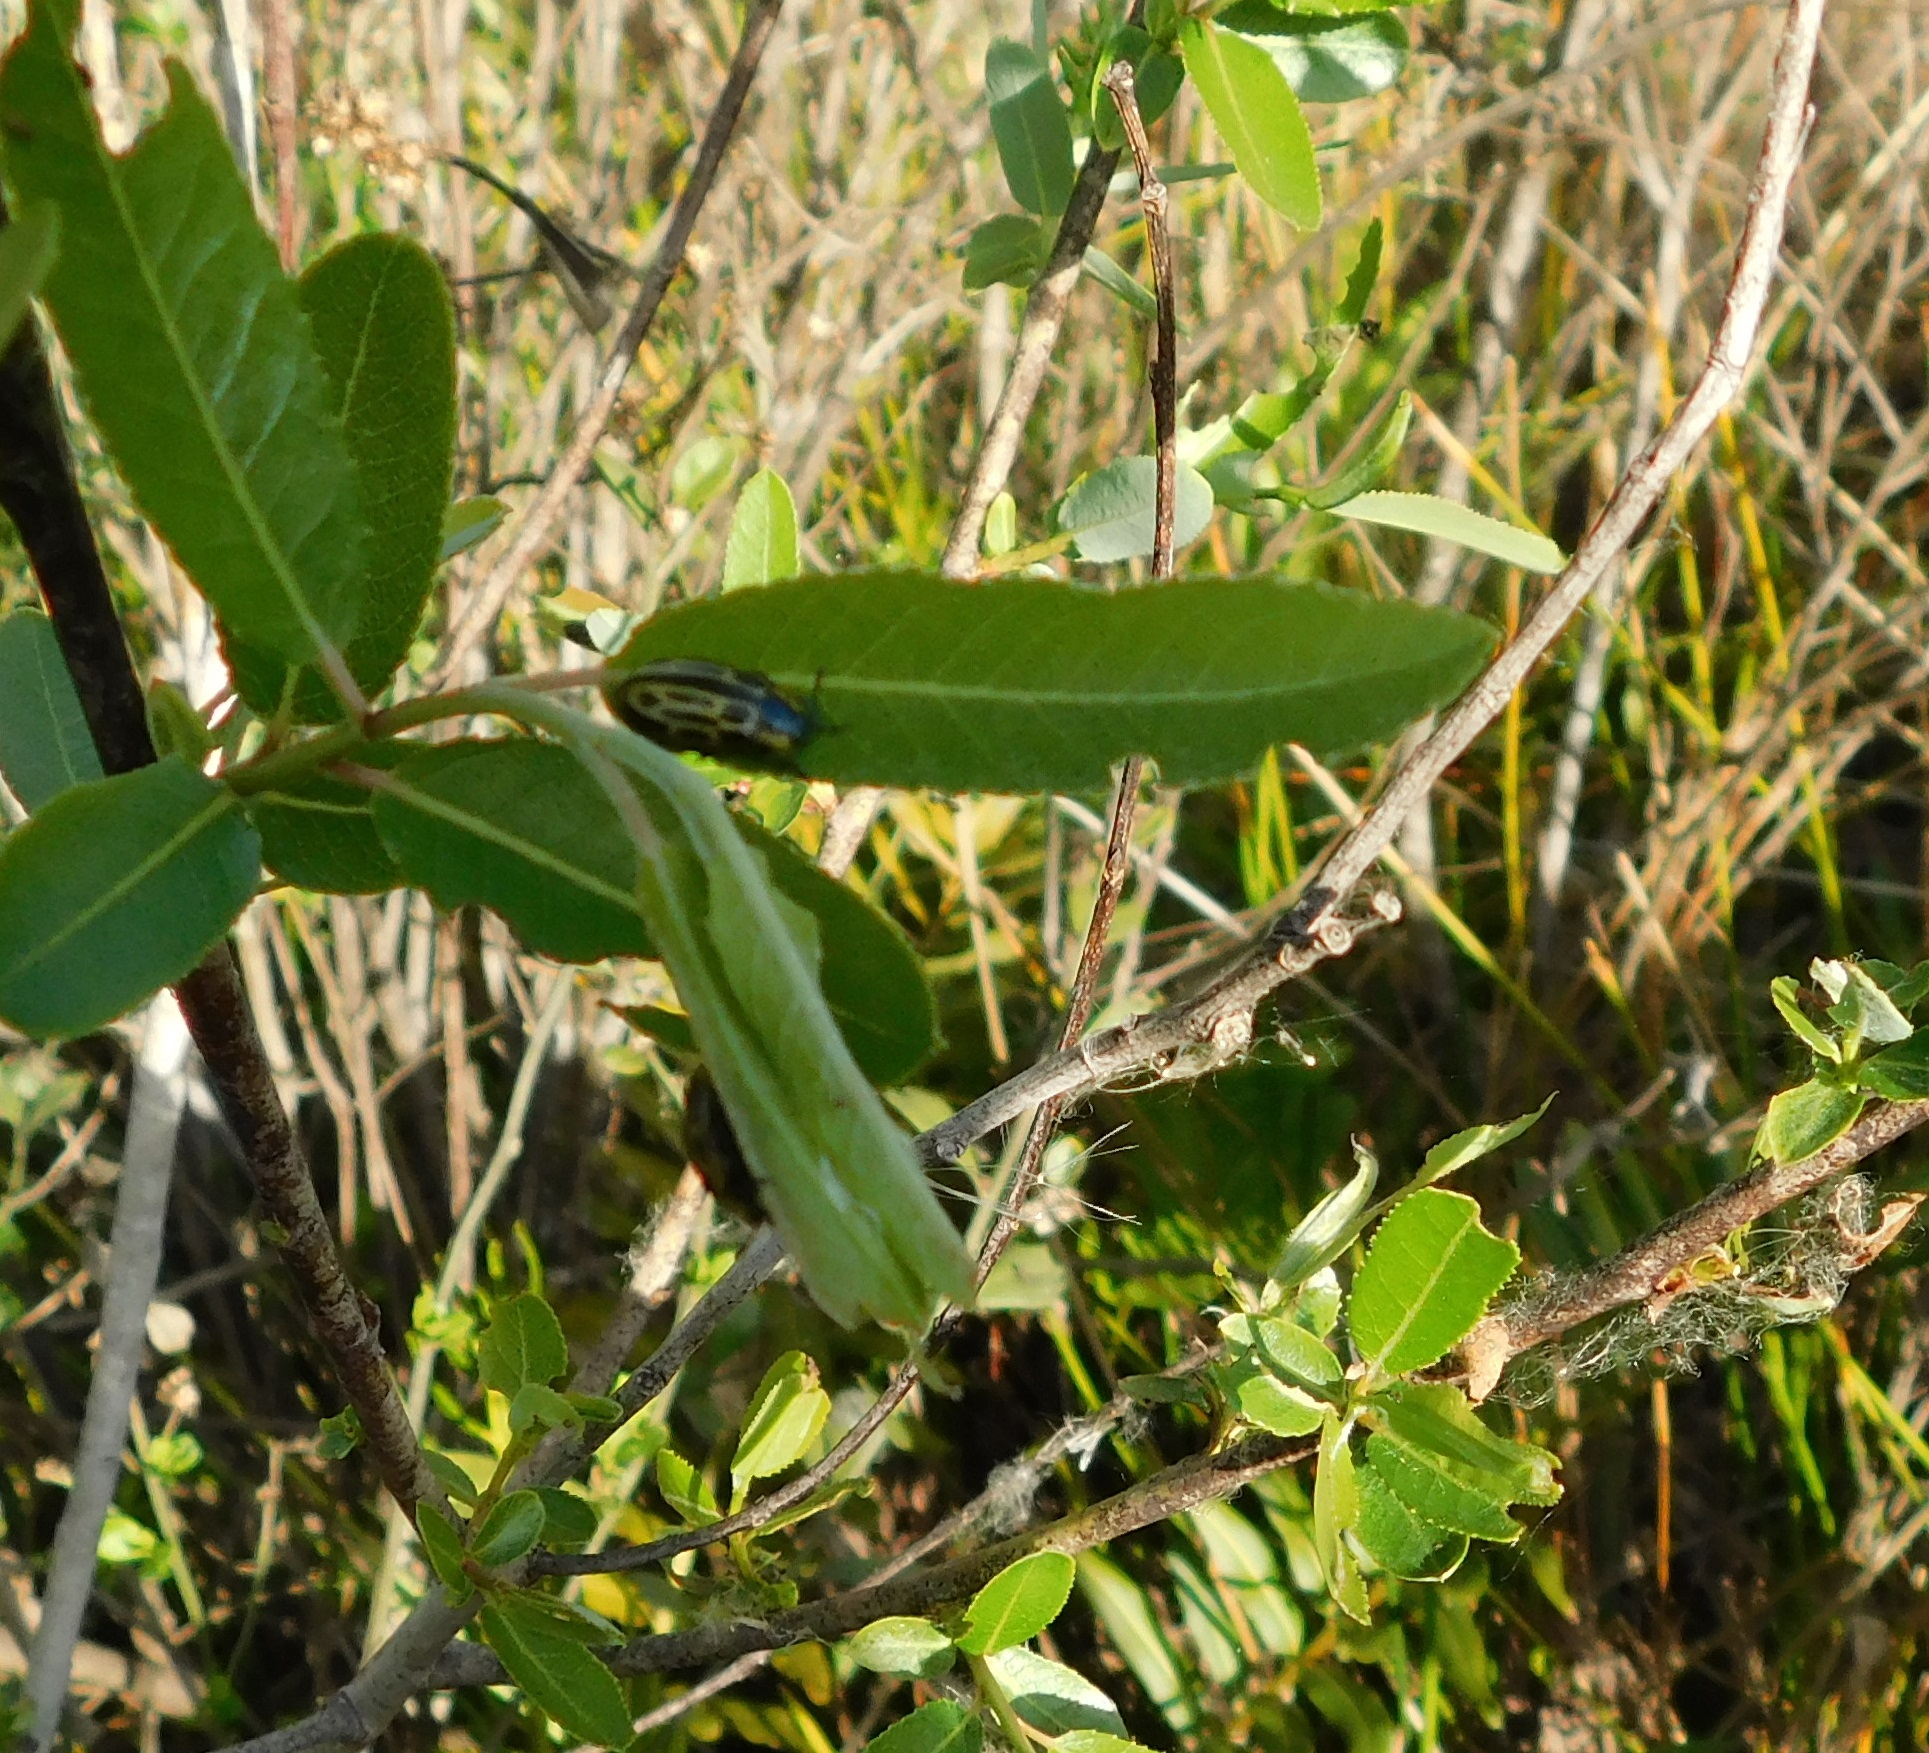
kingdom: Animalia
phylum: Arthropoda
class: Insecta
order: Coleoptera
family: Chrysomelidae
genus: Aethiopocassis
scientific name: Aethiopocassis scripta
